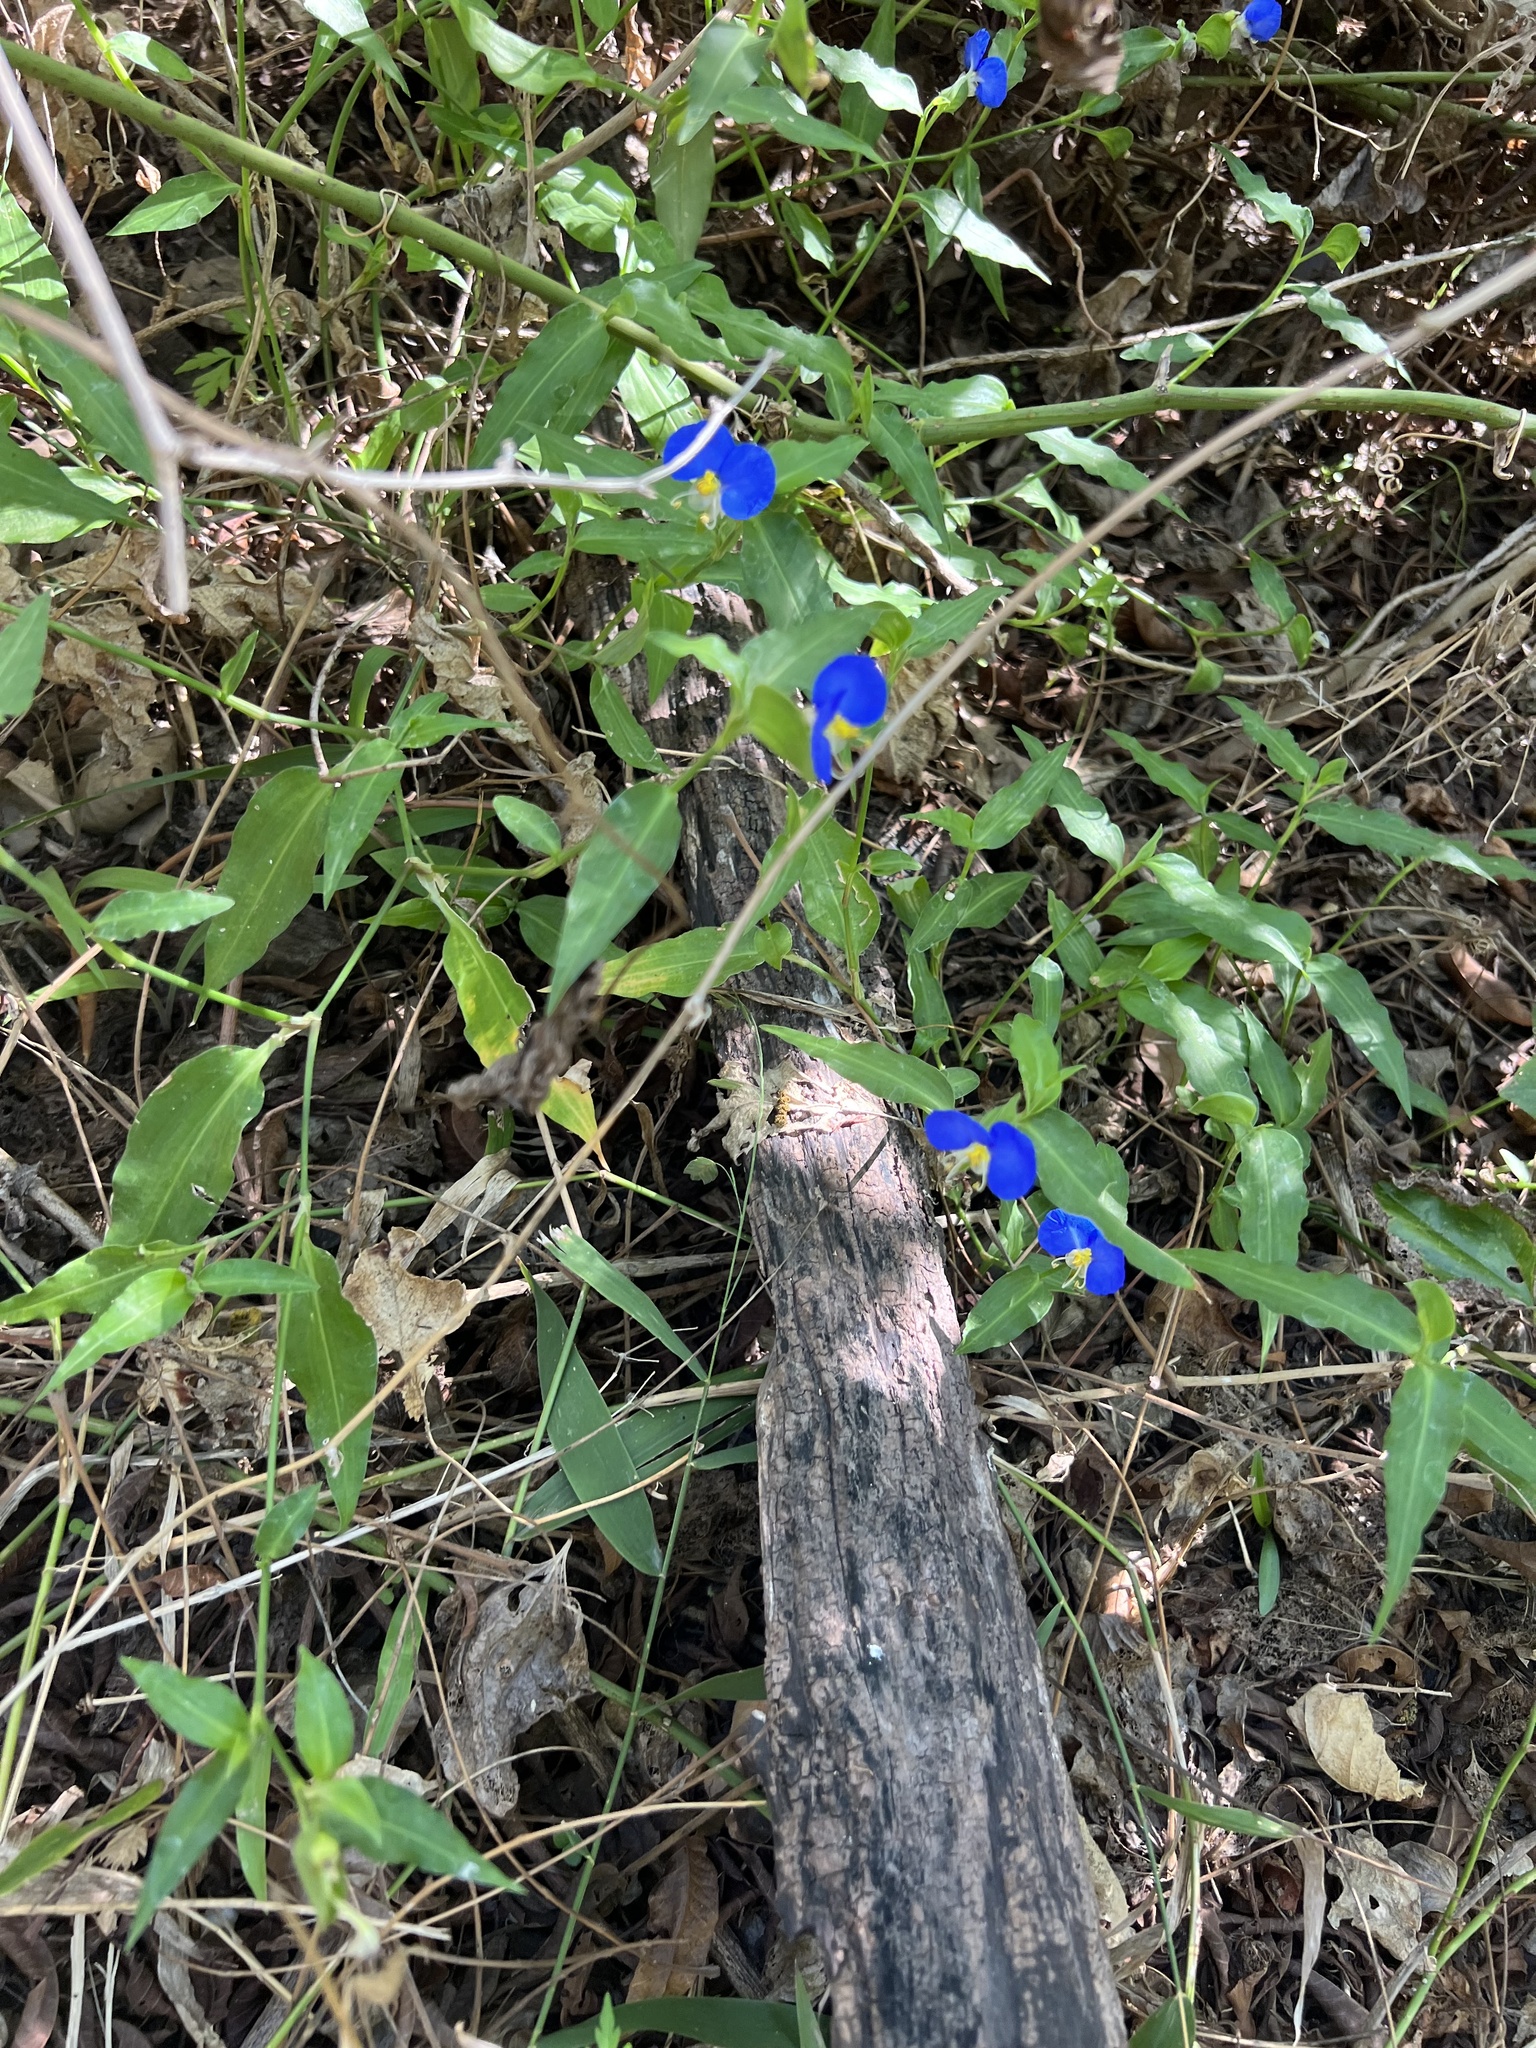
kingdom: Plantae
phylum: Tracheophyta
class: Liliopsida
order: Commelinales
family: Commelinaceae
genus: Commelina
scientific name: Commelina erecta
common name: Blousel blommetjie
